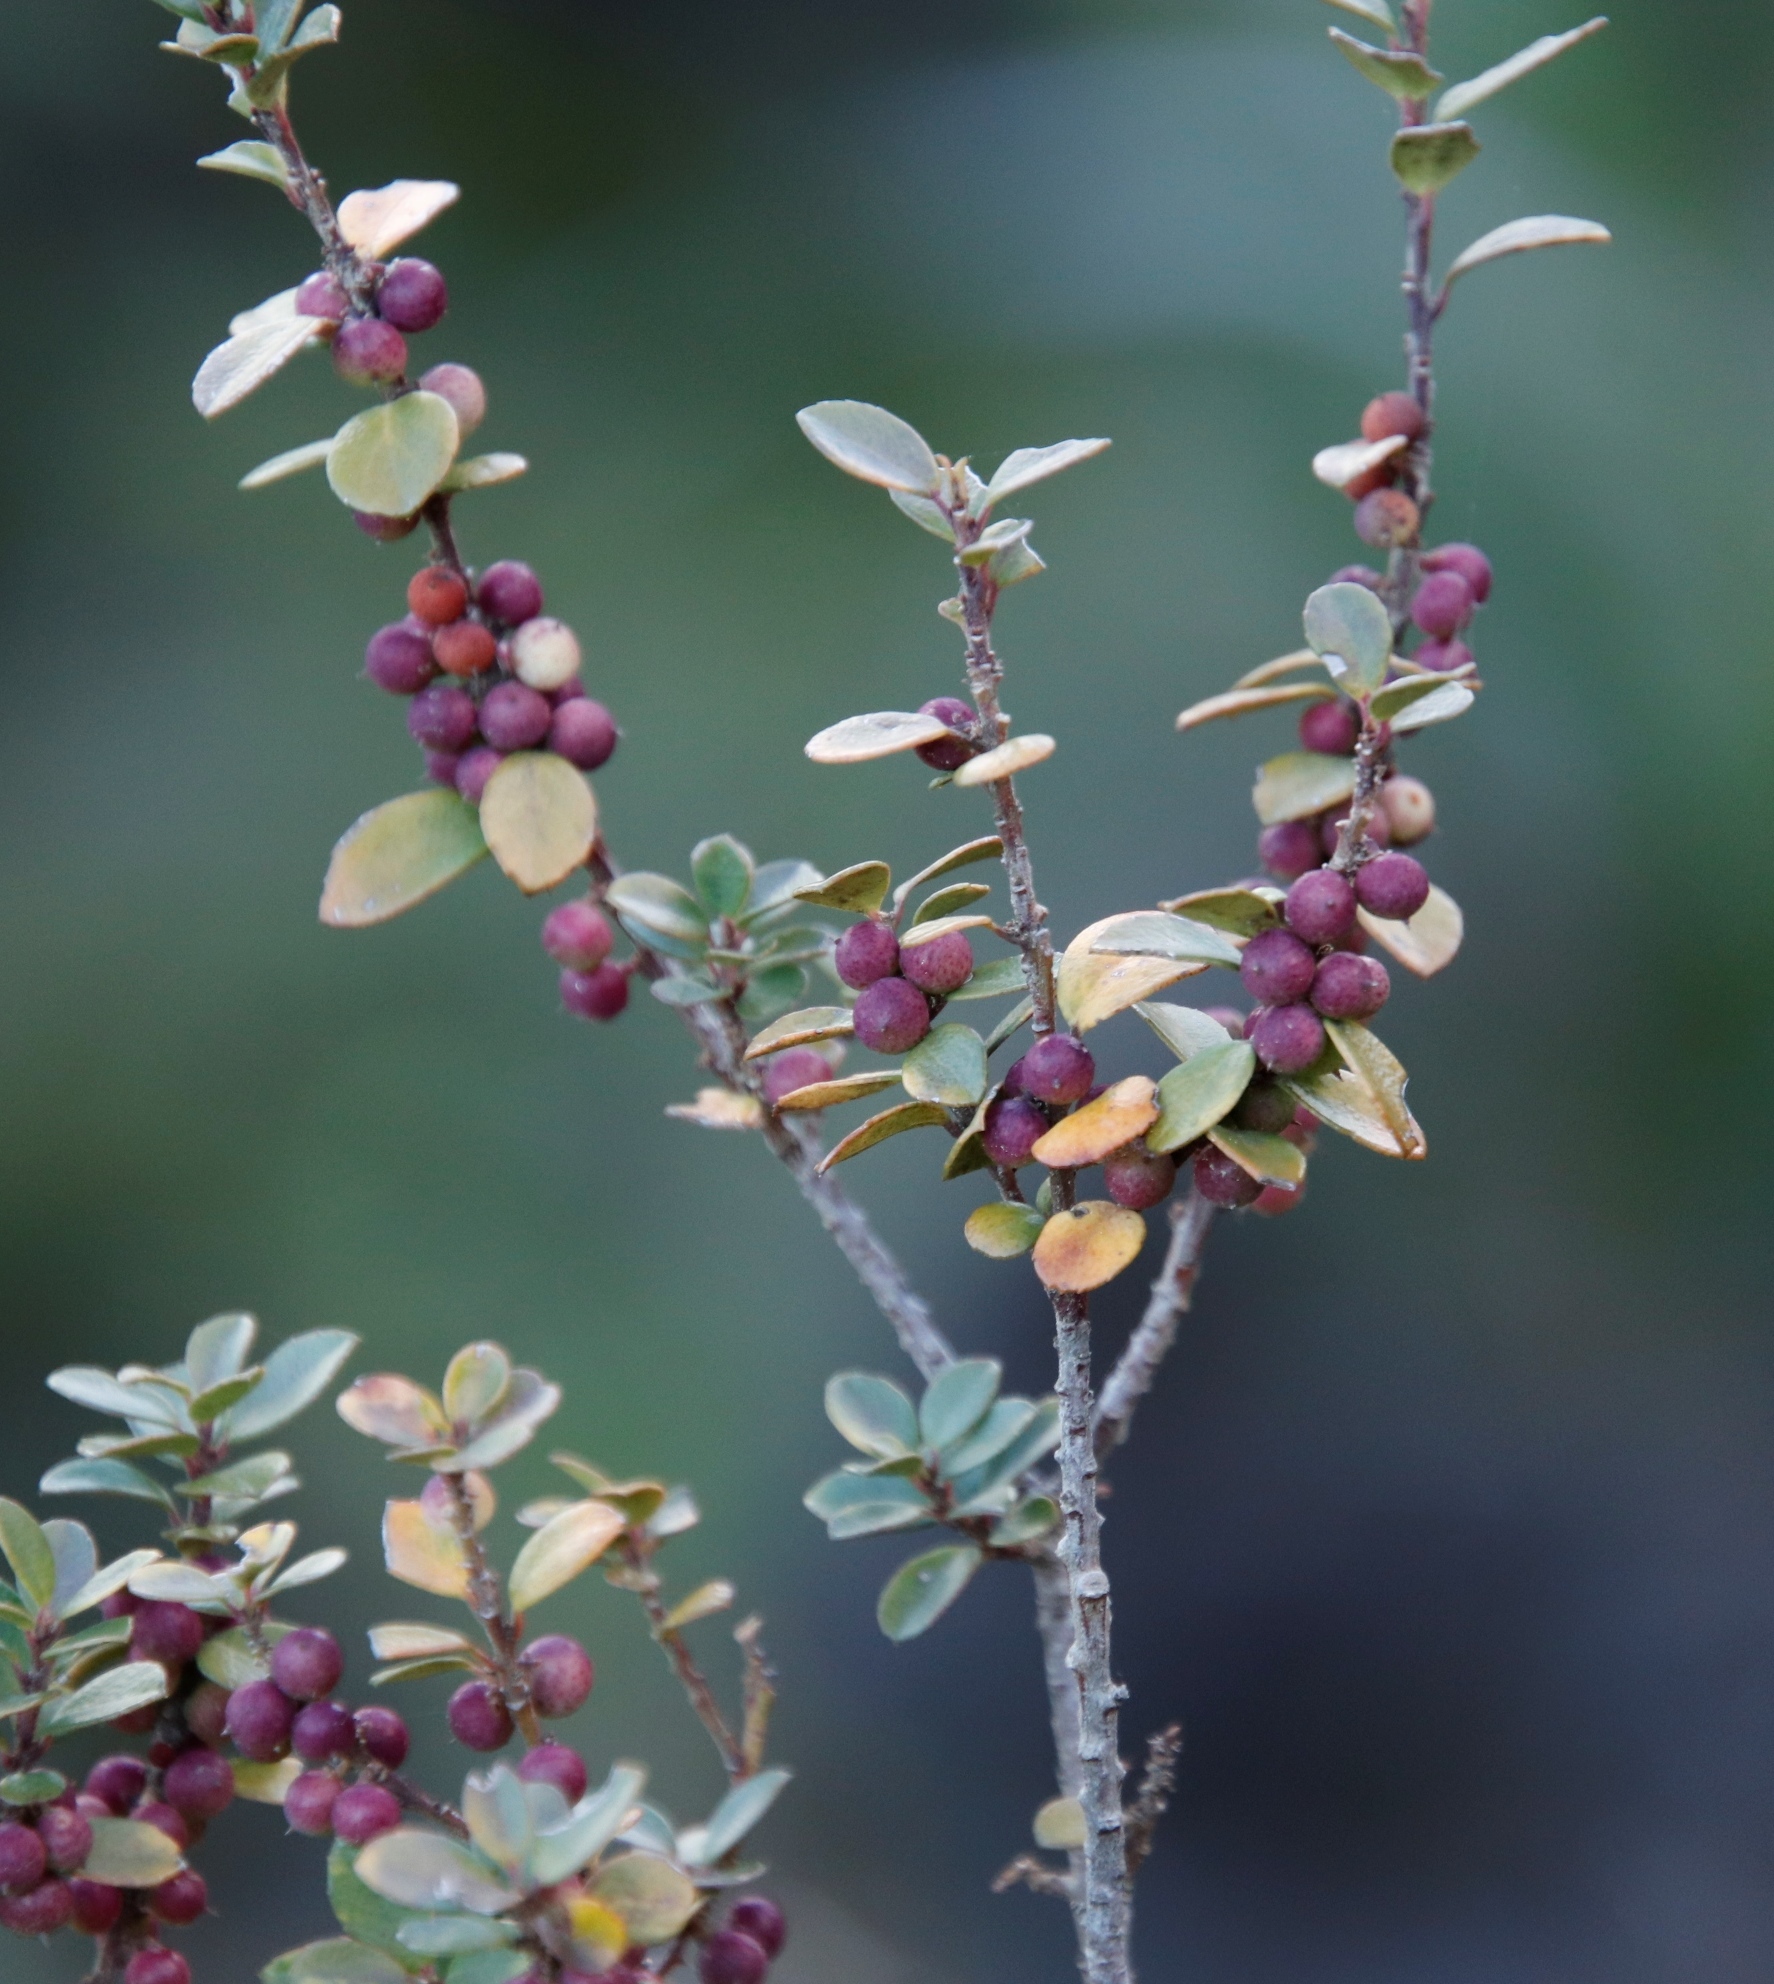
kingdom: Plantae
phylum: Tracheophyta
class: Magnoliopsida
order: Ericales
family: Primulaceae
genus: Myrsine
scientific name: Myrsine africana
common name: African-boxwood
